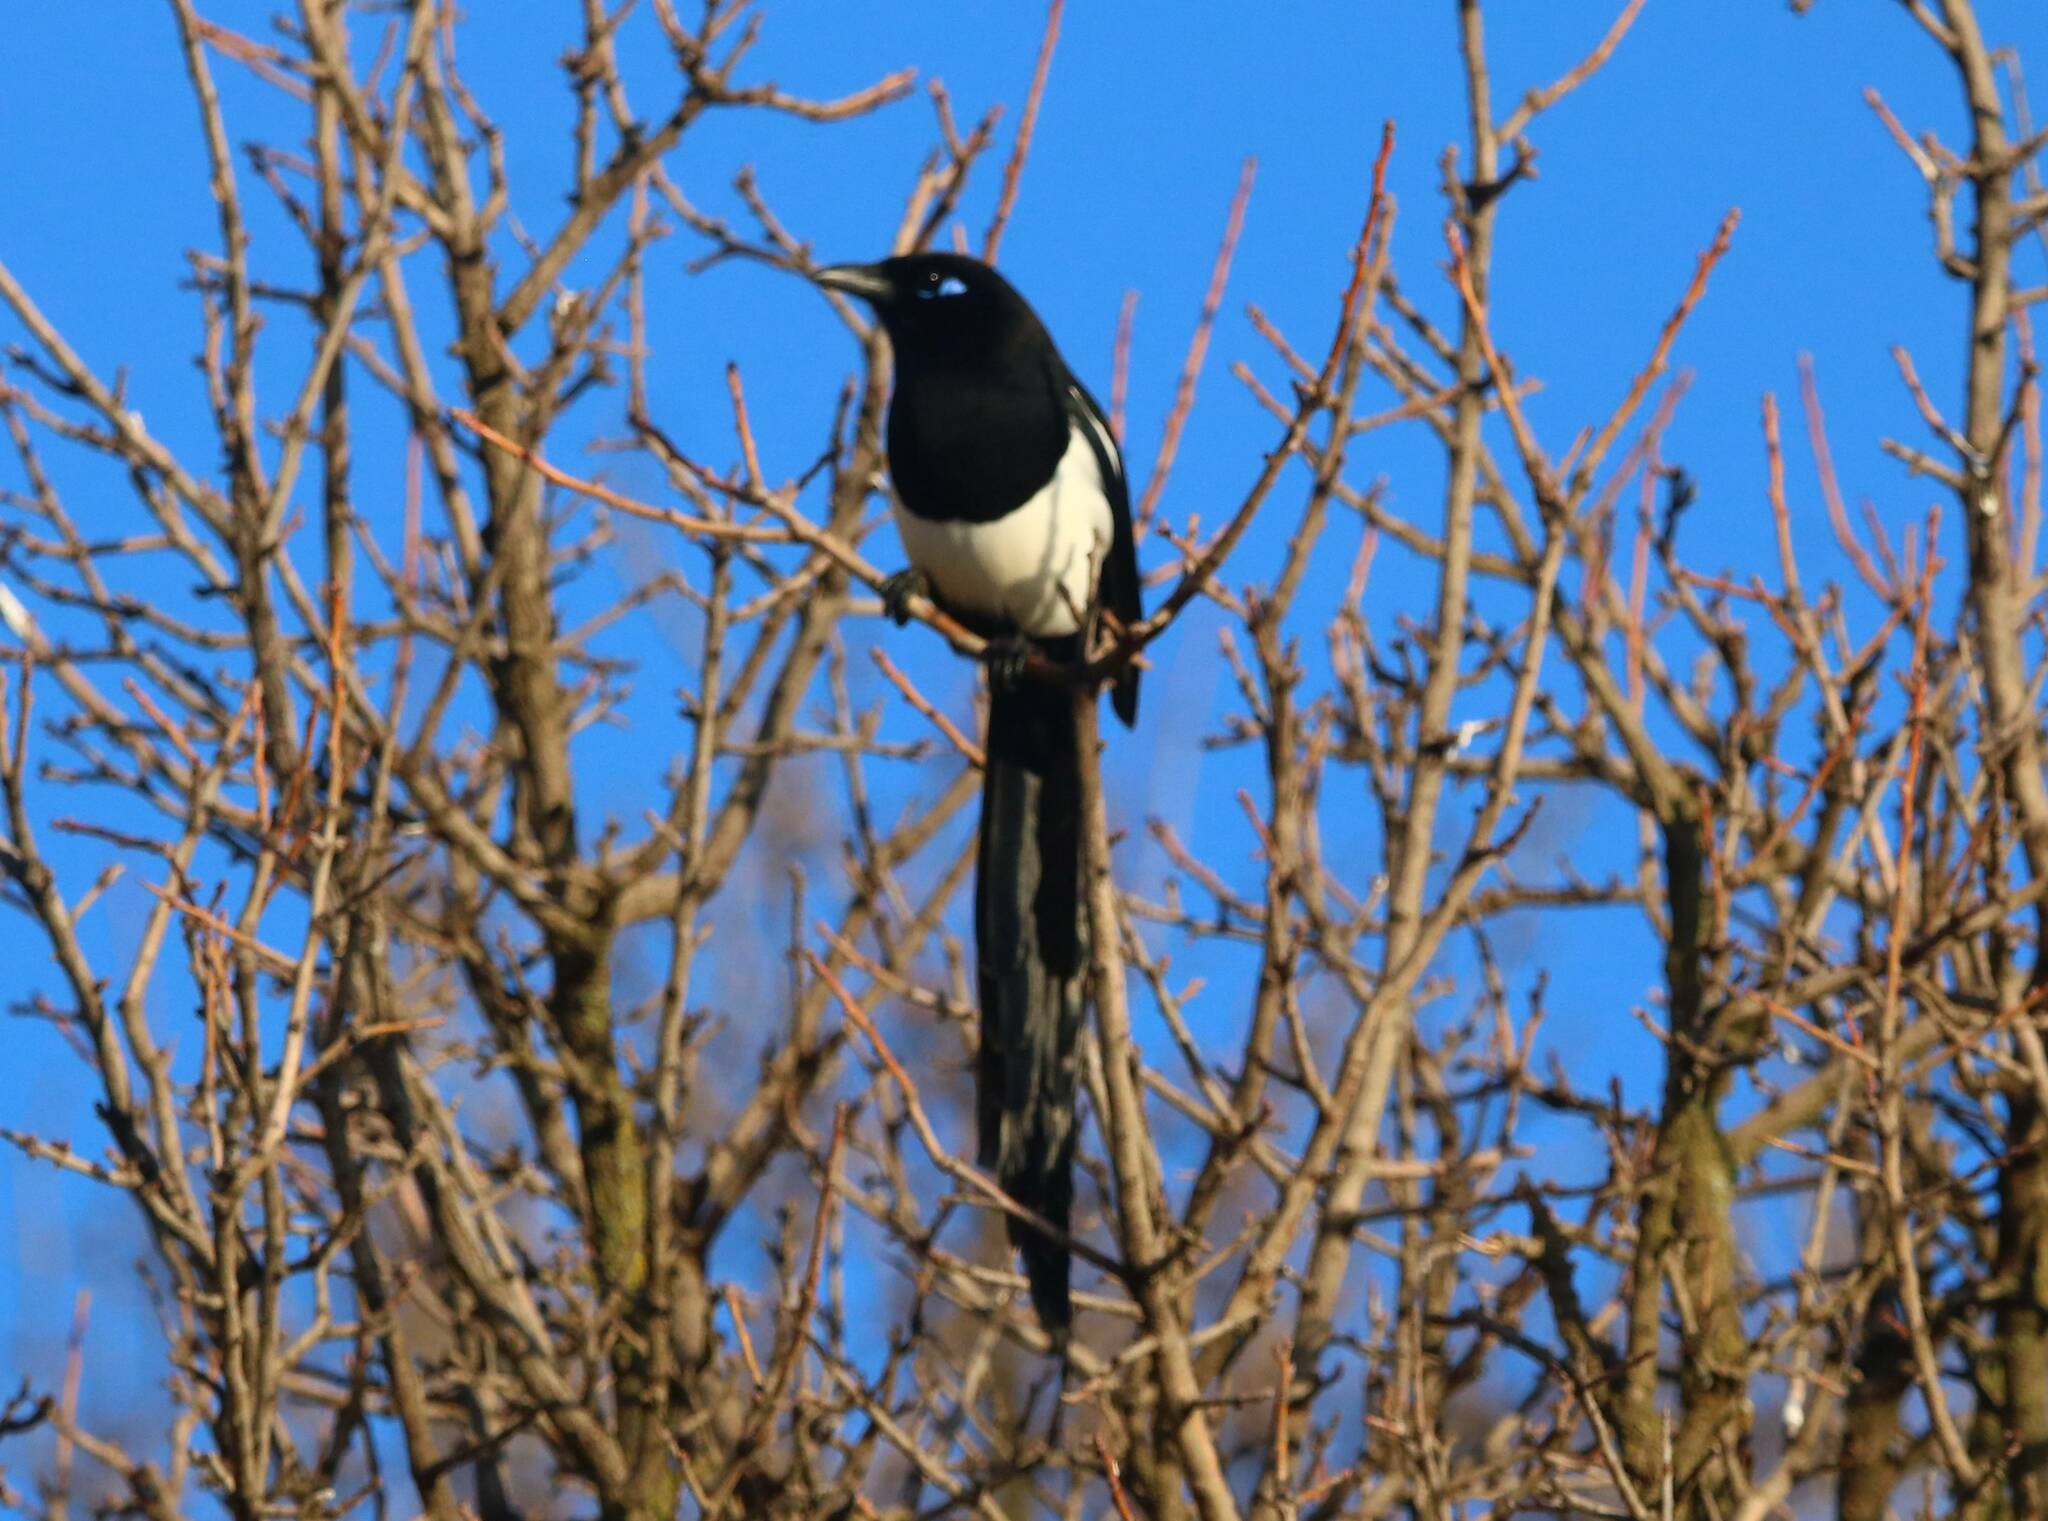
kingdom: Animalia
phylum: Chordata
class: Aves
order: Passeriformes
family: Corvidae
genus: Pica
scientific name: Pica mauritanica
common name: Maghreb magpie
